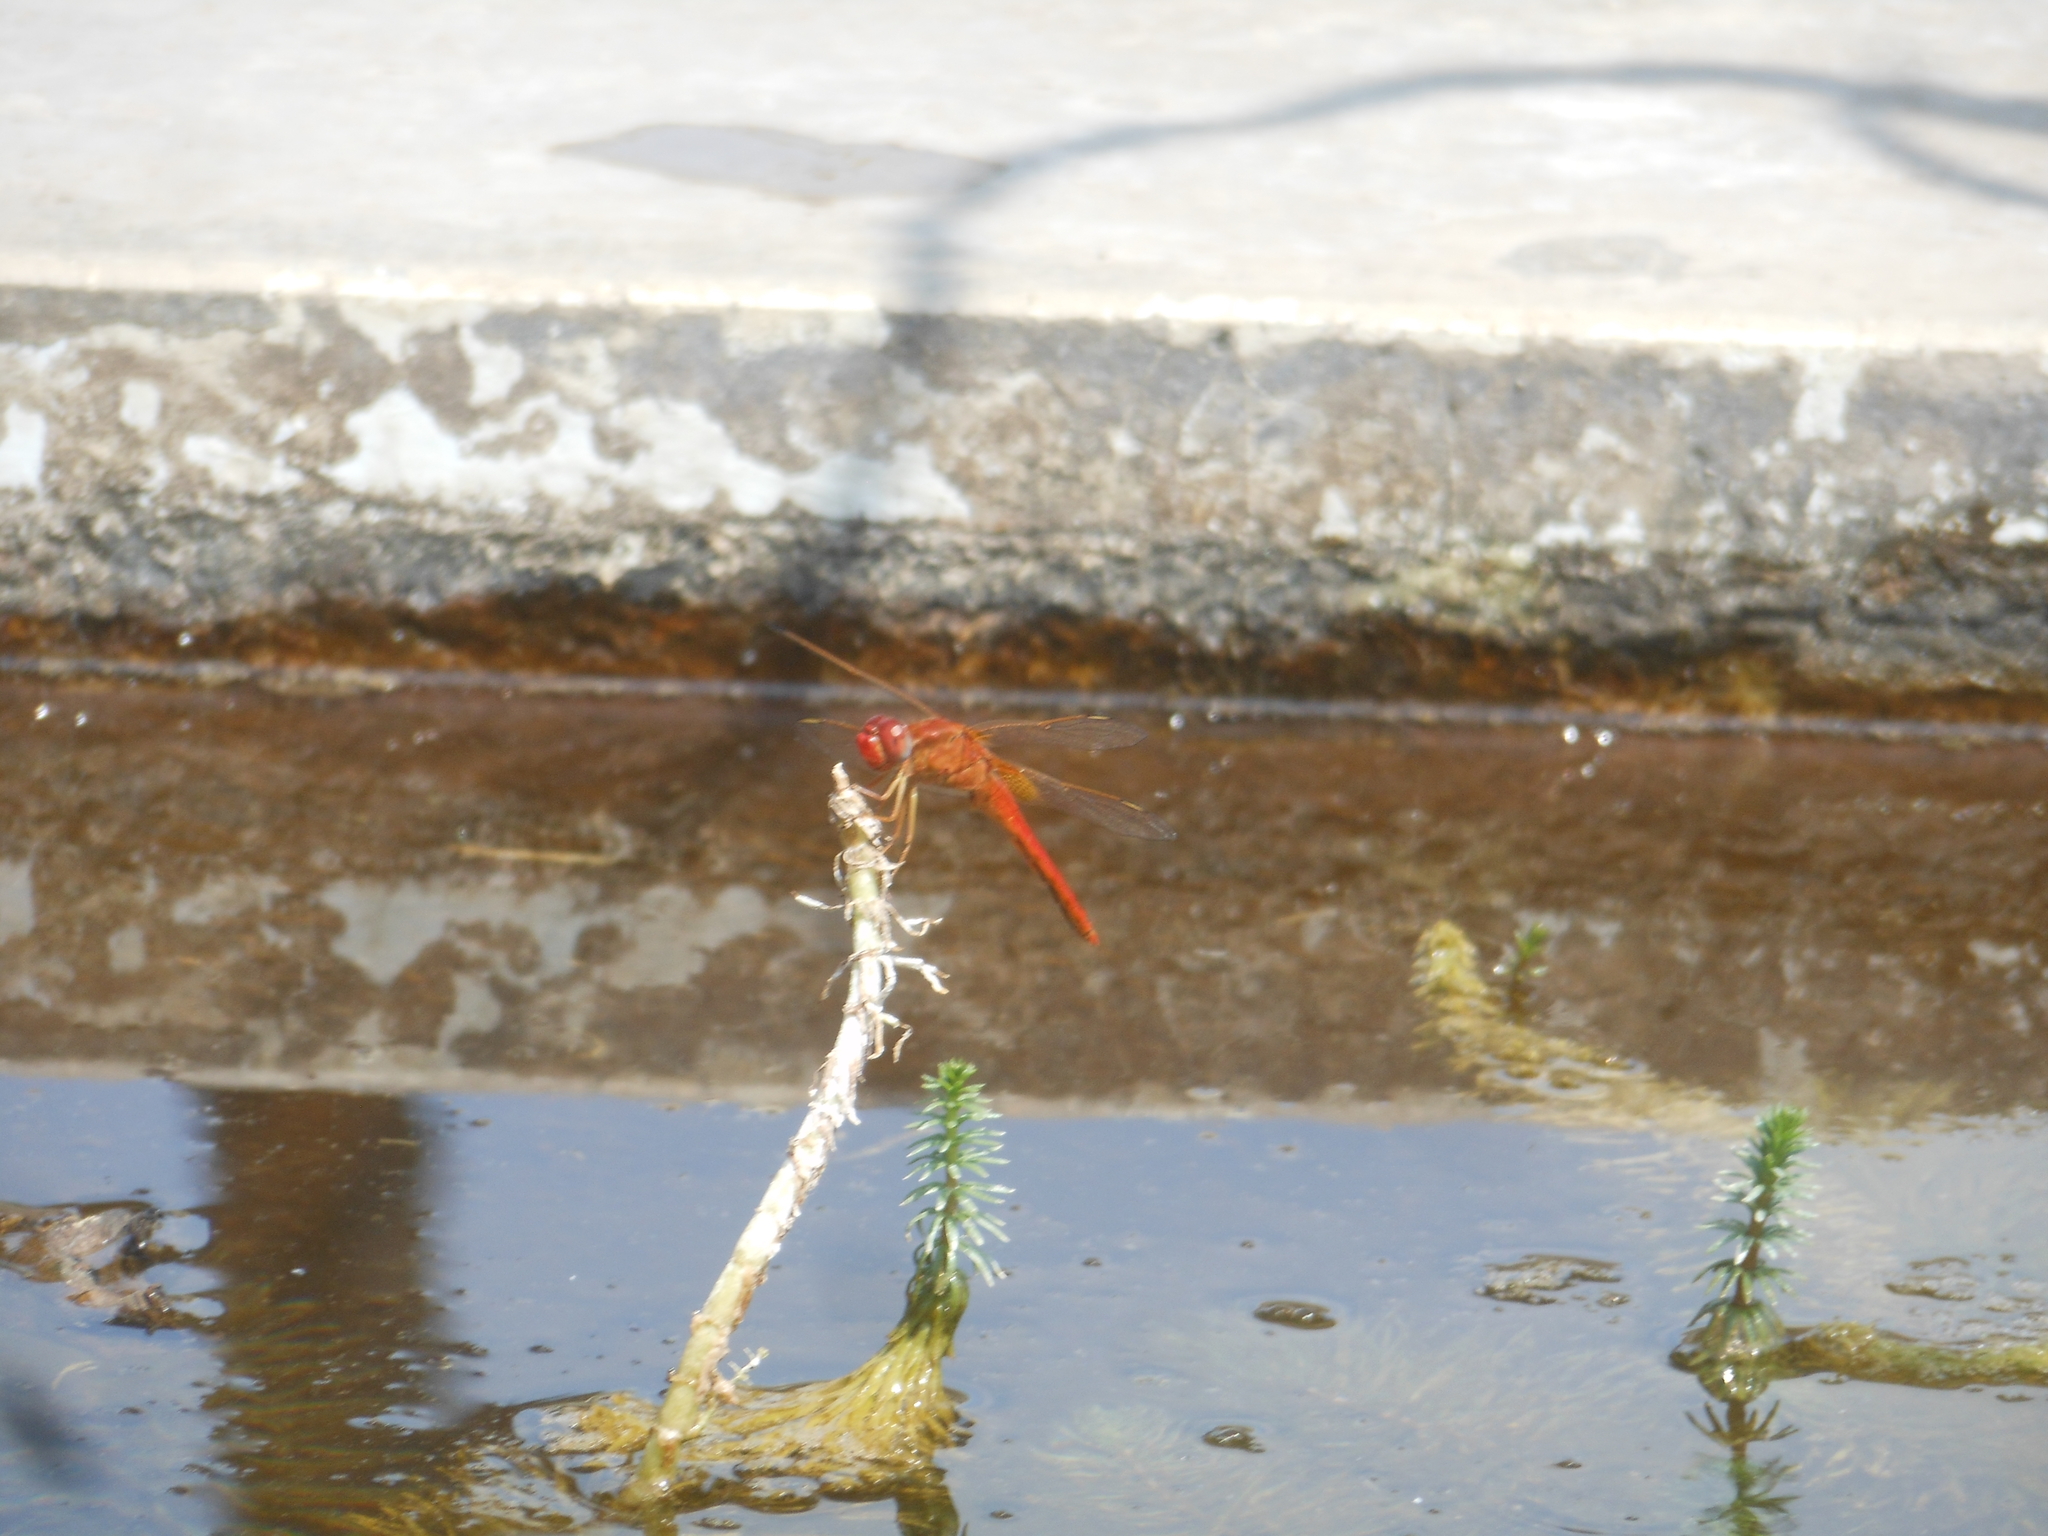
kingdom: Animalia
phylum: Arthropoda
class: Insecta
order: Odonata
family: Libellulidae
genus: Crocothemis
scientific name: Crocothemis erythraea
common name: Scarlet dragonfly
